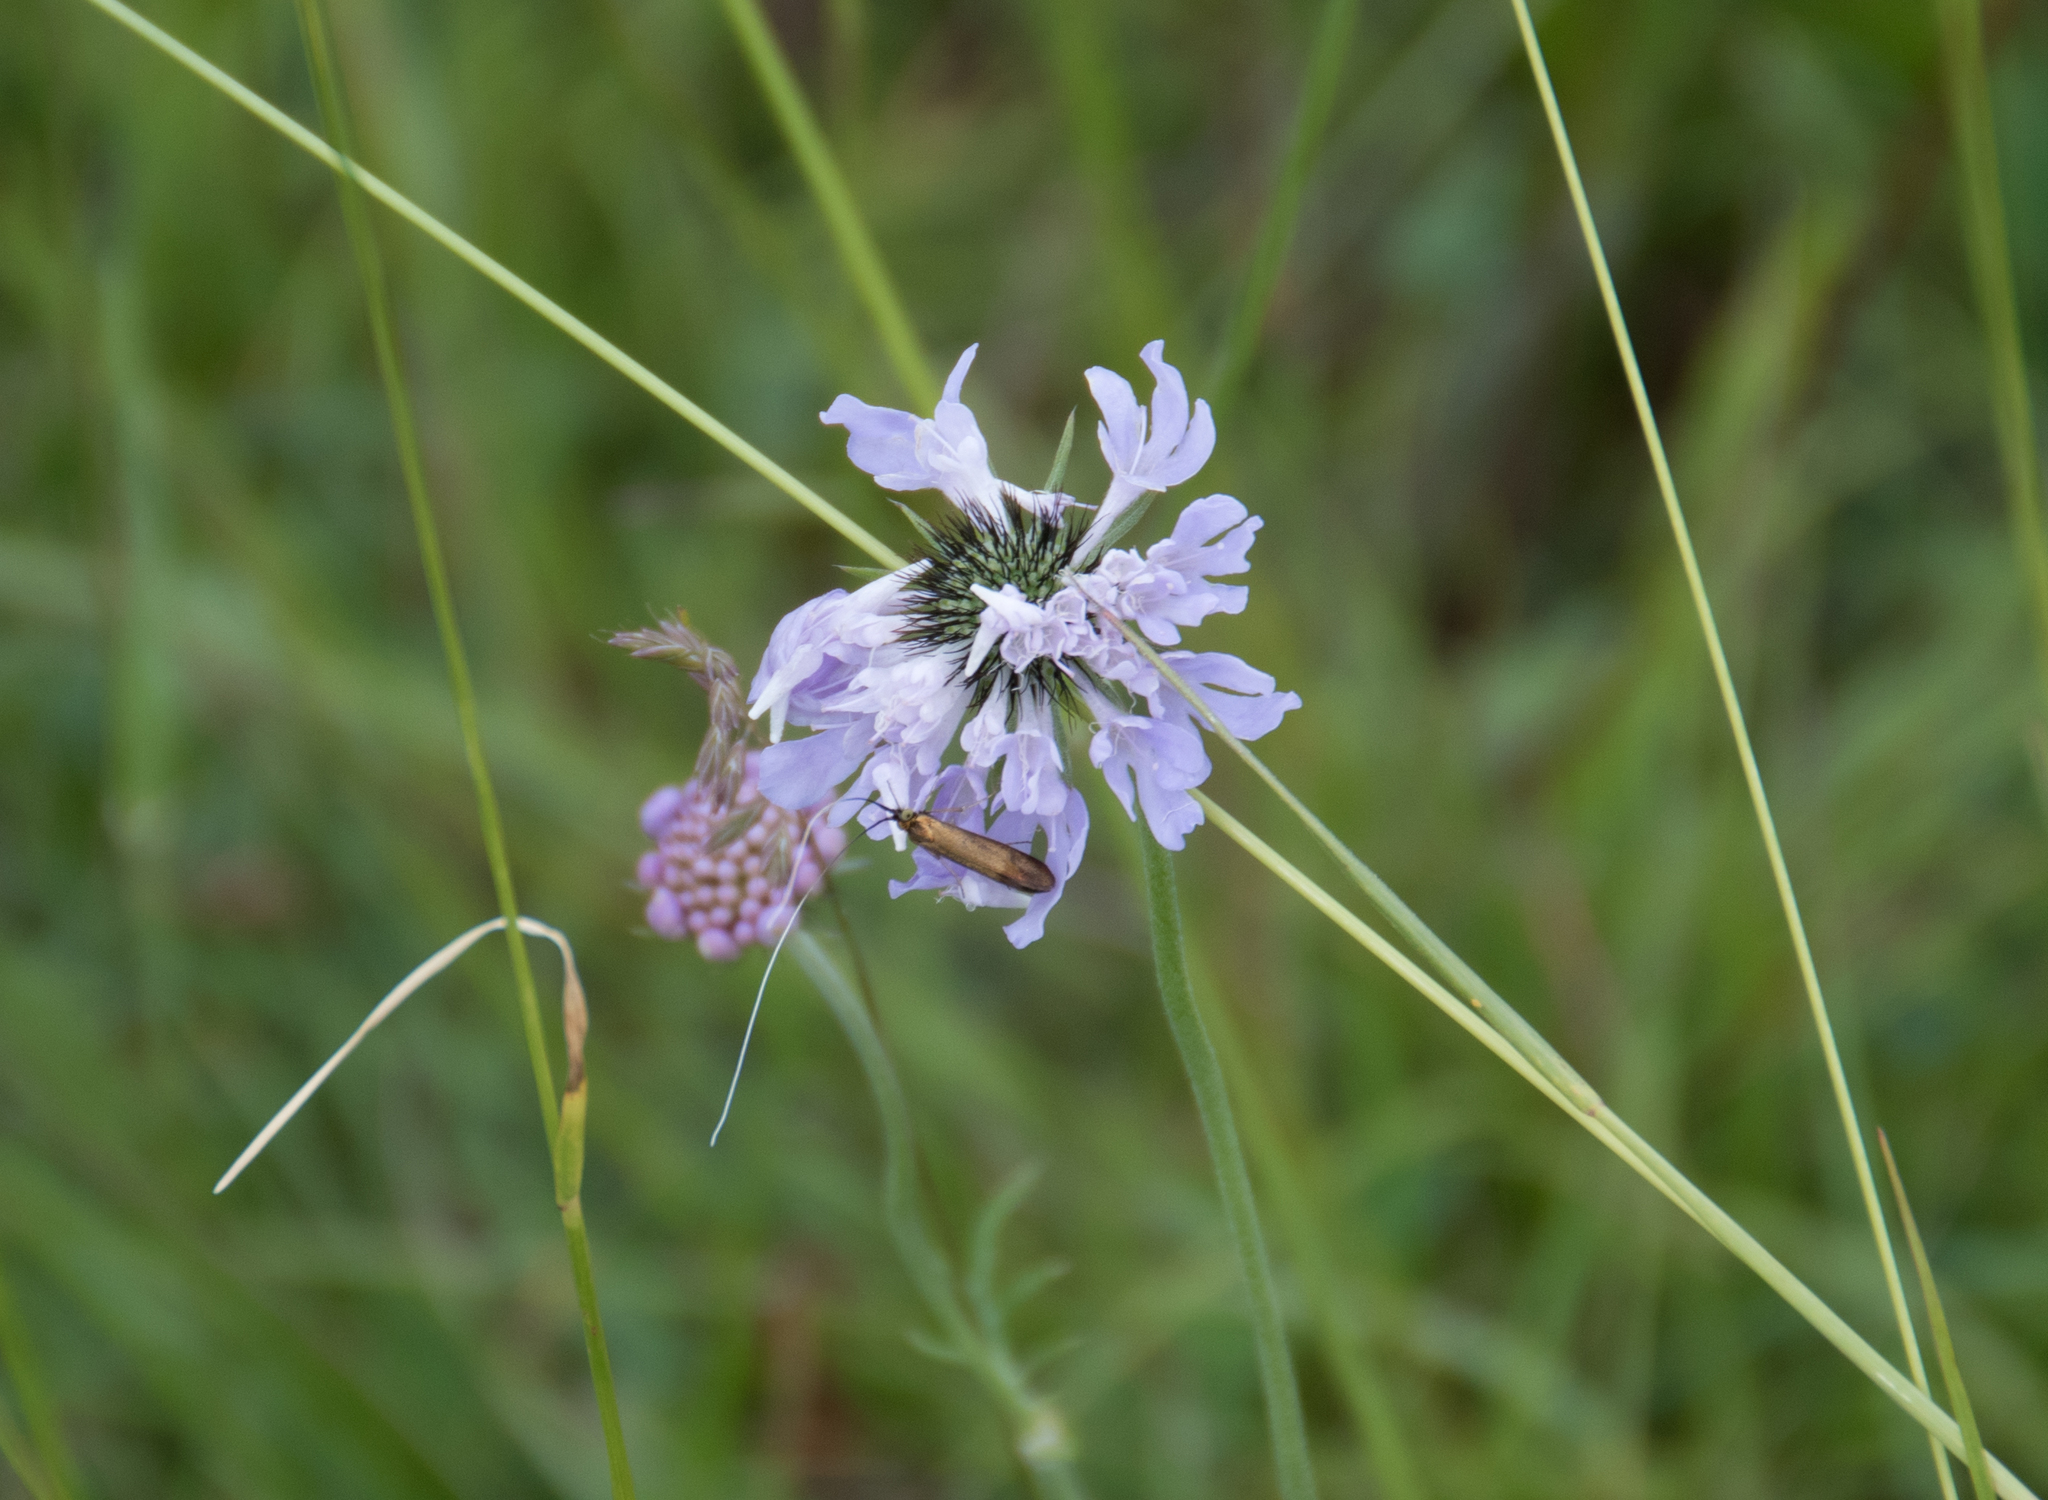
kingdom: Animalia
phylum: Arthropoda
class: Insecta
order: Lepidoptera
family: Adelidae
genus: Nemophora
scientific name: Nemophora metallica
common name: Brassy long-horn
